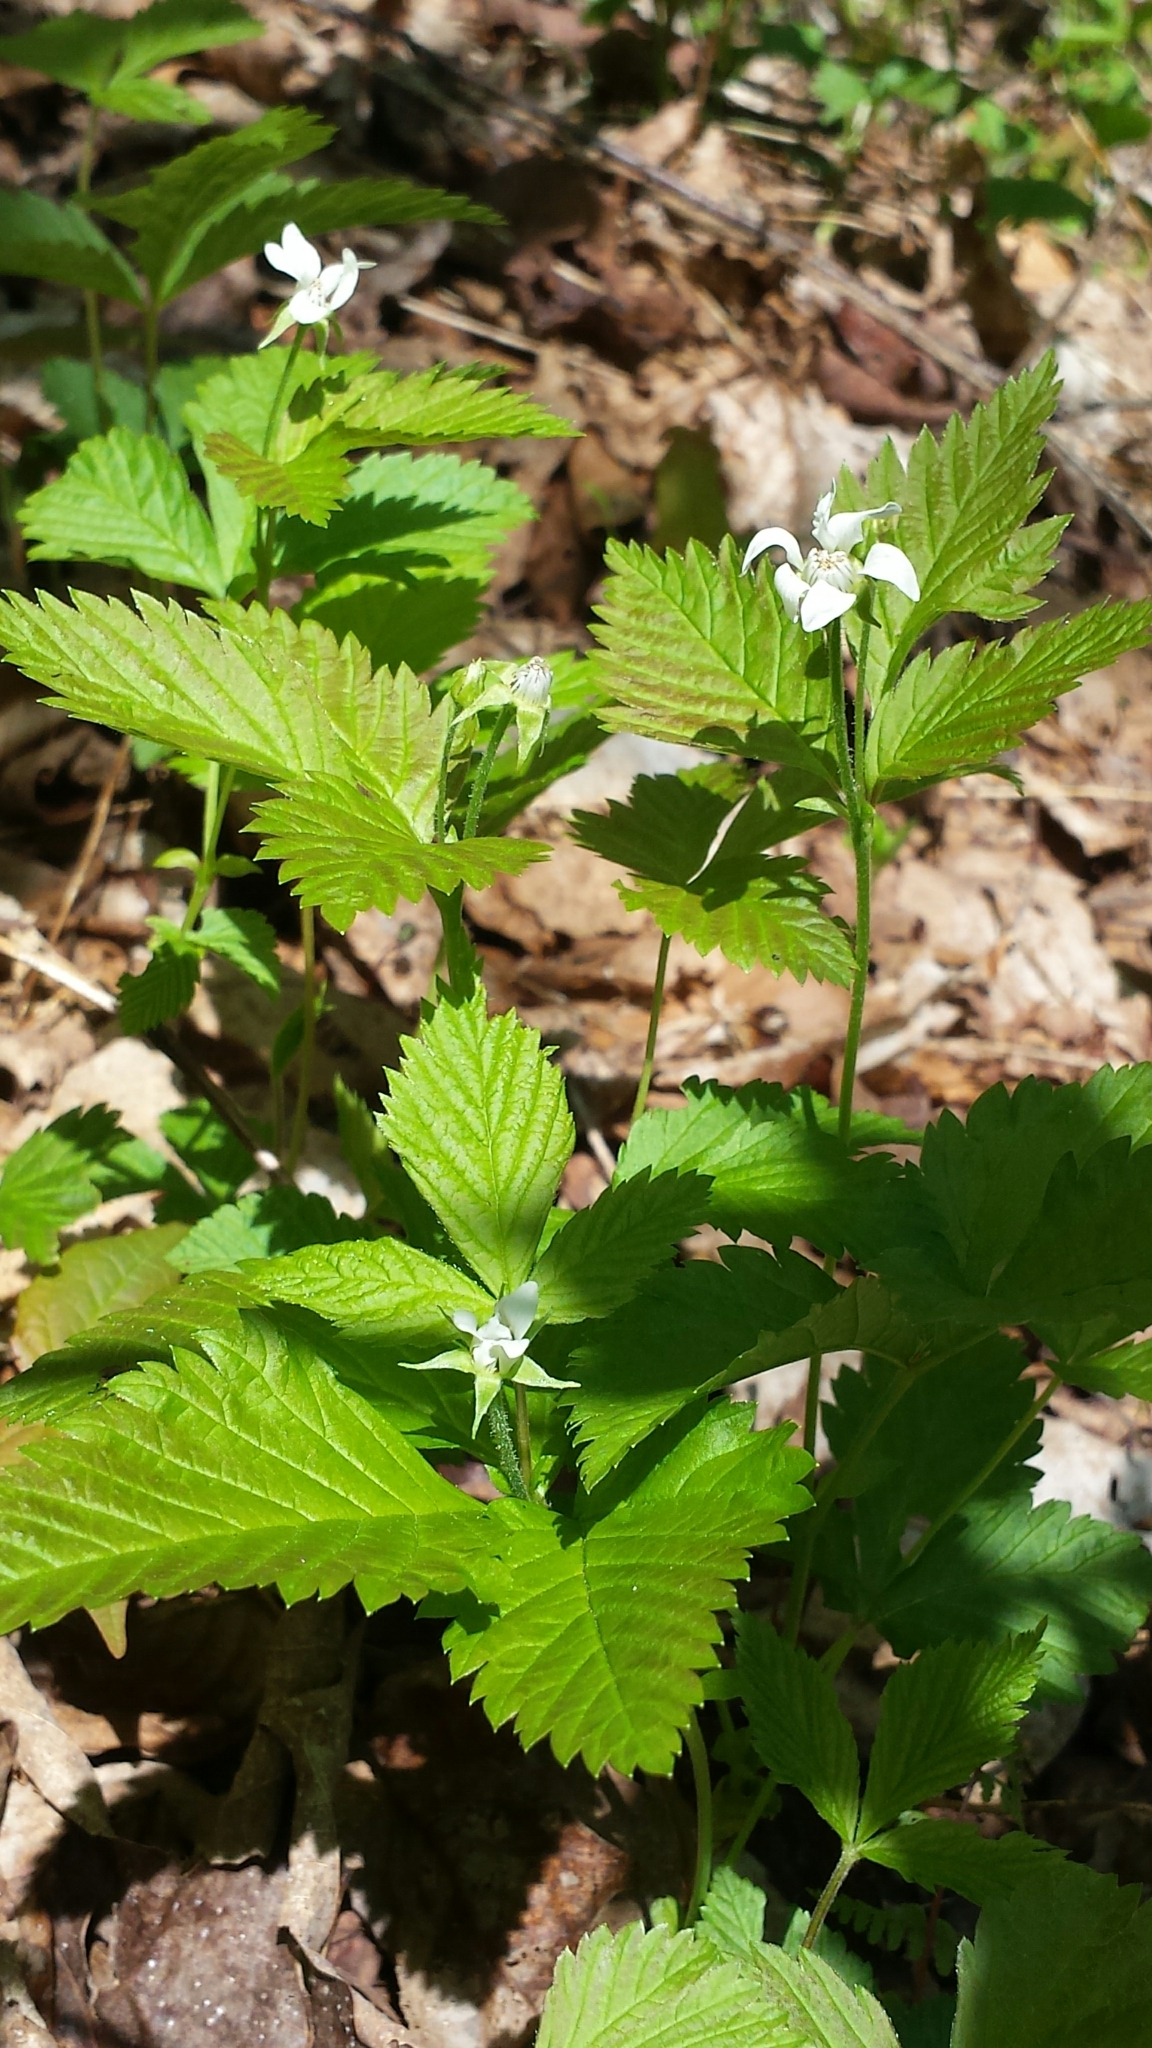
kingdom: Plantae
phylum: Tracheophyta
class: Magnoliopsida
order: Rosales
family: Rosaceae
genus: Rubus
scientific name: Rubus pubescens
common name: Dwarf raspberry
